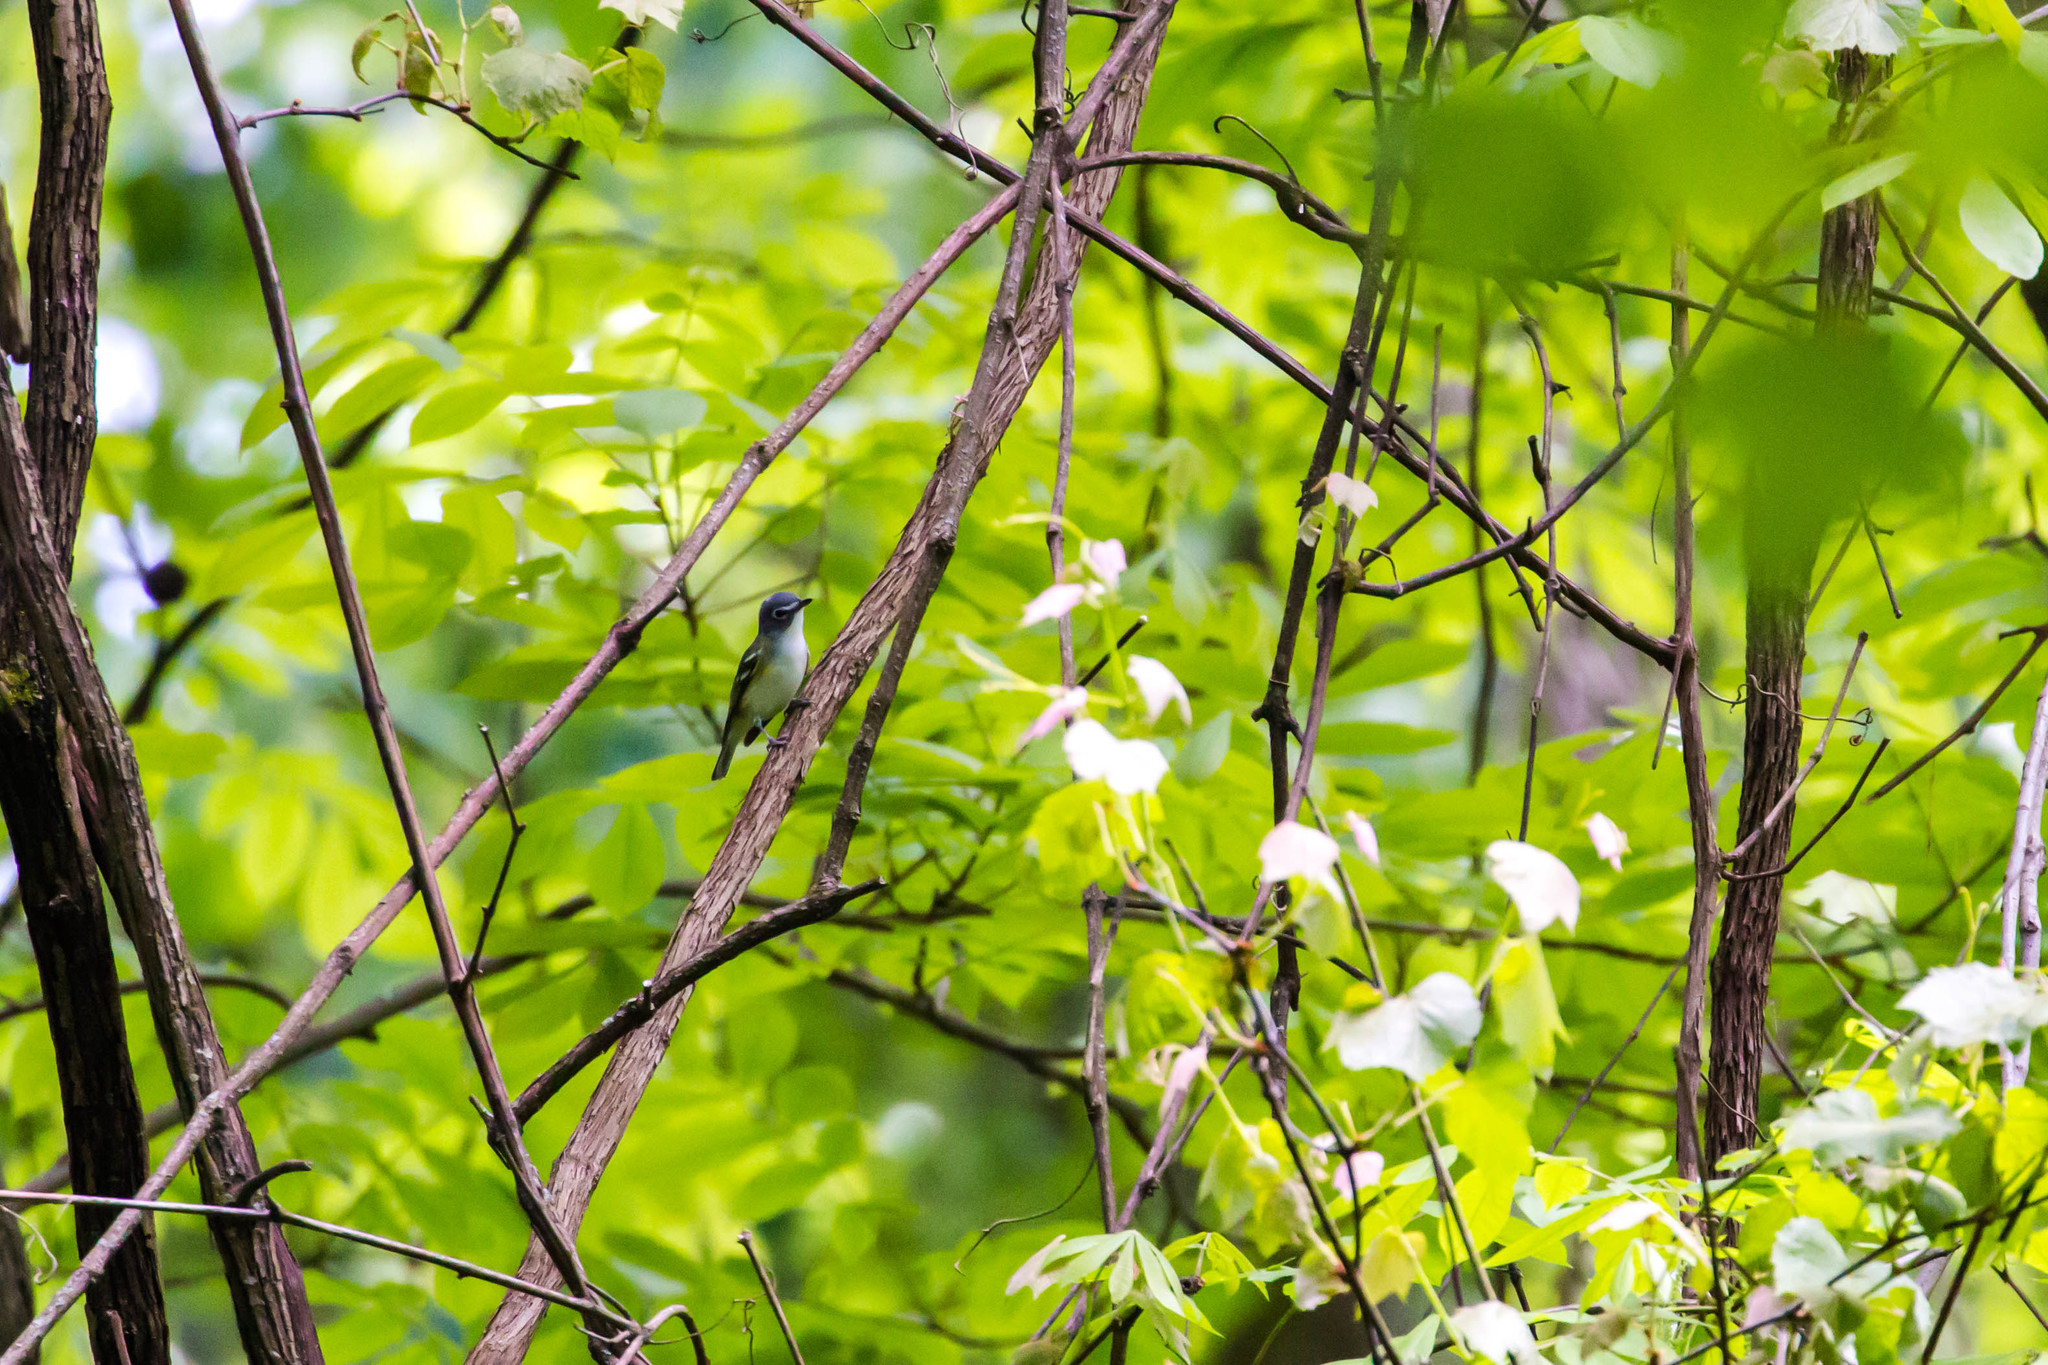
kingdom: Animalia
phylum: Chordata
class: Aves
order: Passeriformes
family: Vireonidae
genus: Vireo
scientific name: Vireo solitarius
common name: Blue-headed vireo
